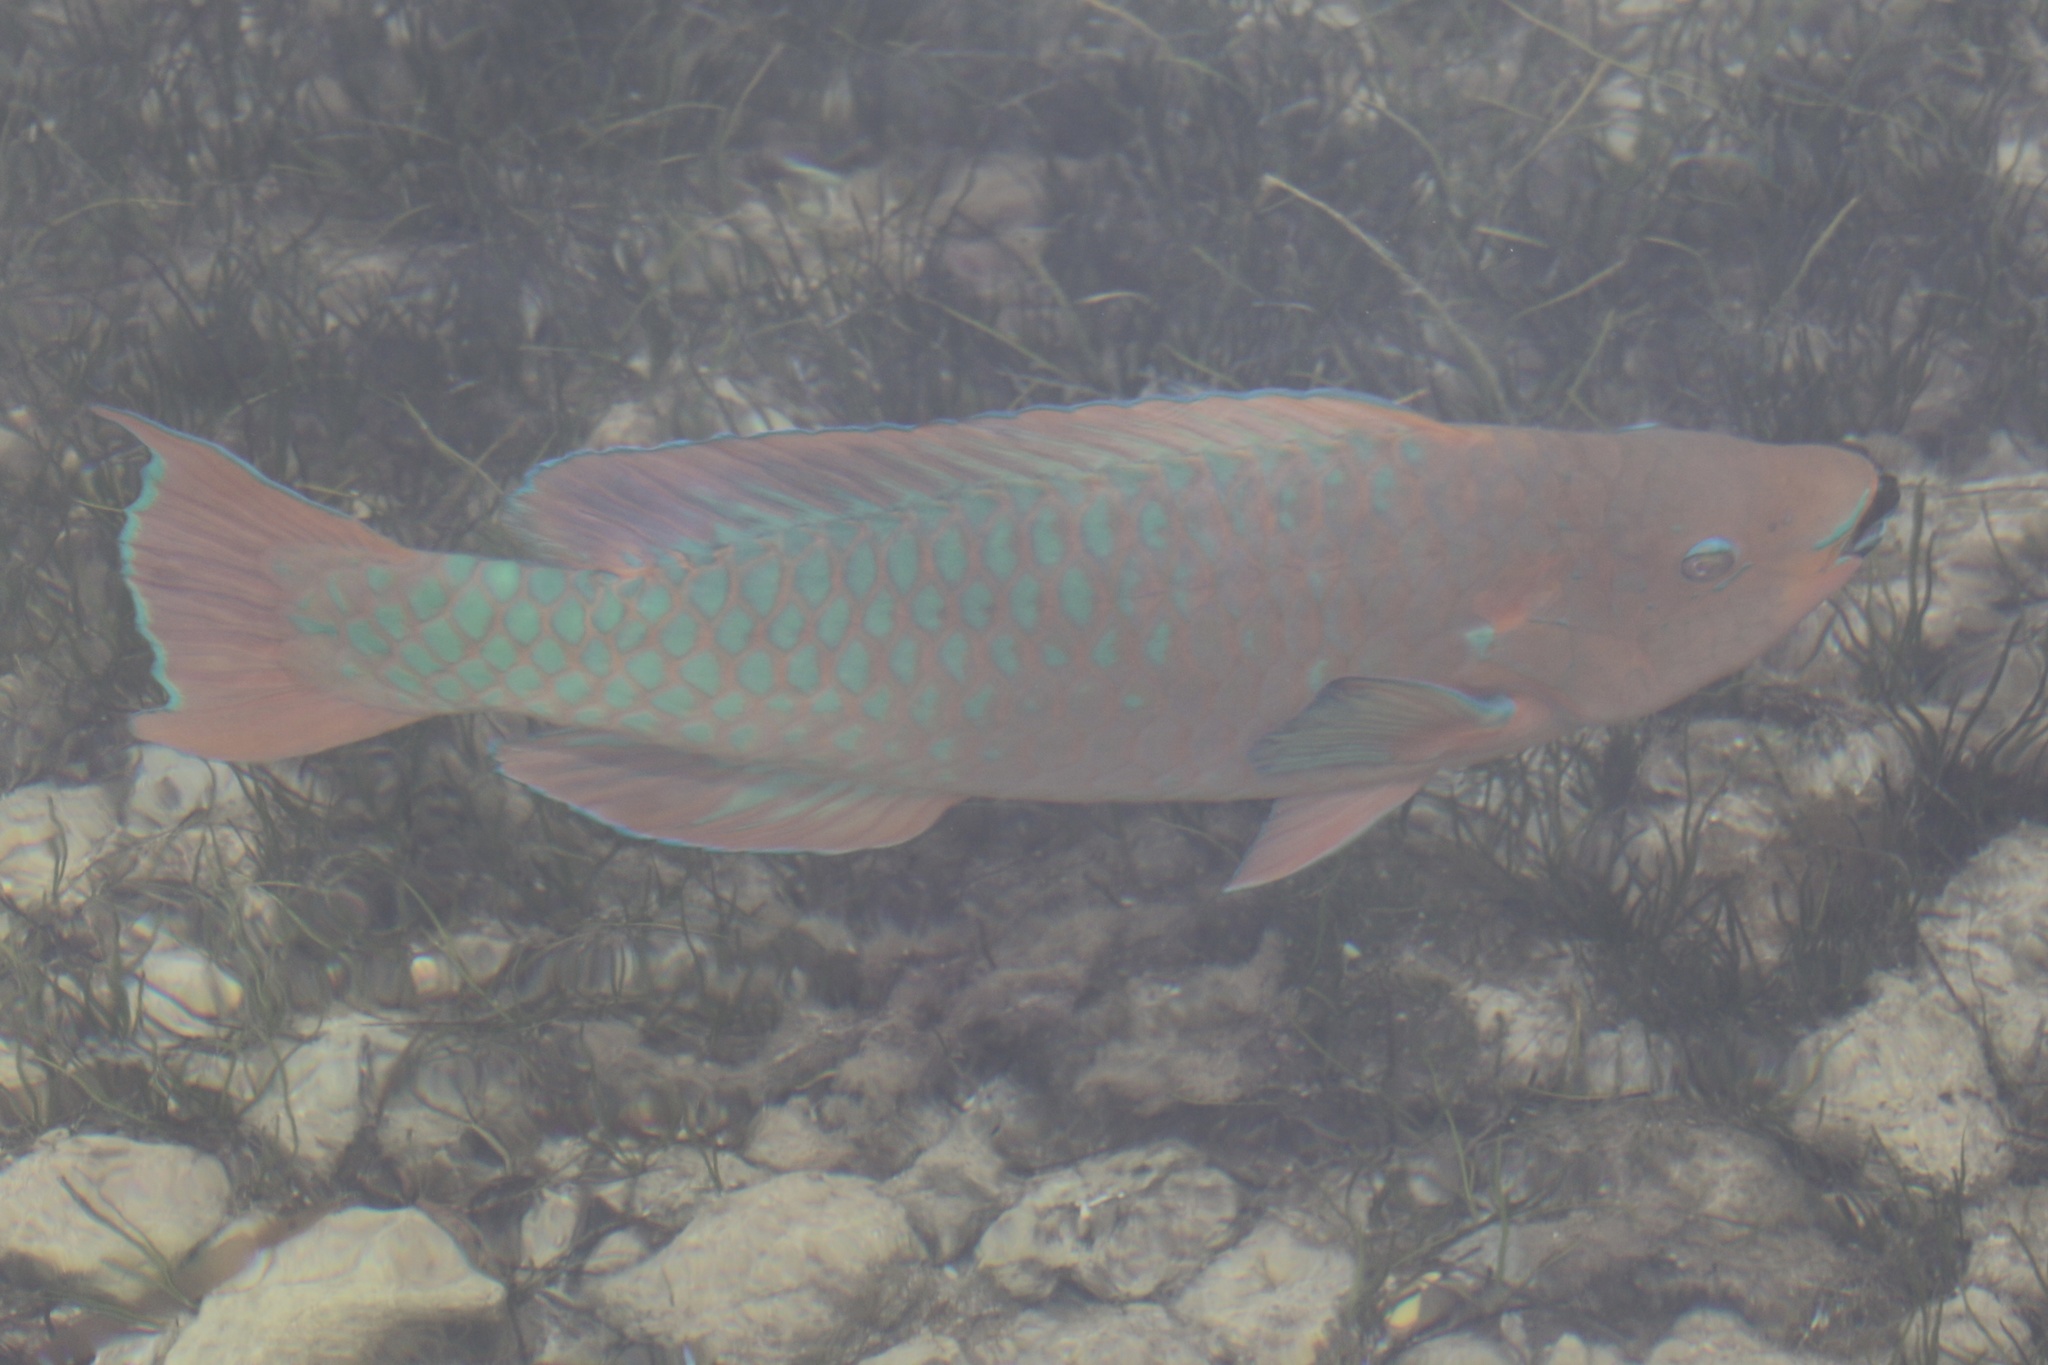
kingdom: Animalia
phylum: Chordata
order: Perciformes
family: Scaridae
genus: Scarus
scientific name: Scarus guacamaia
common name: Rainbow parrotfish
